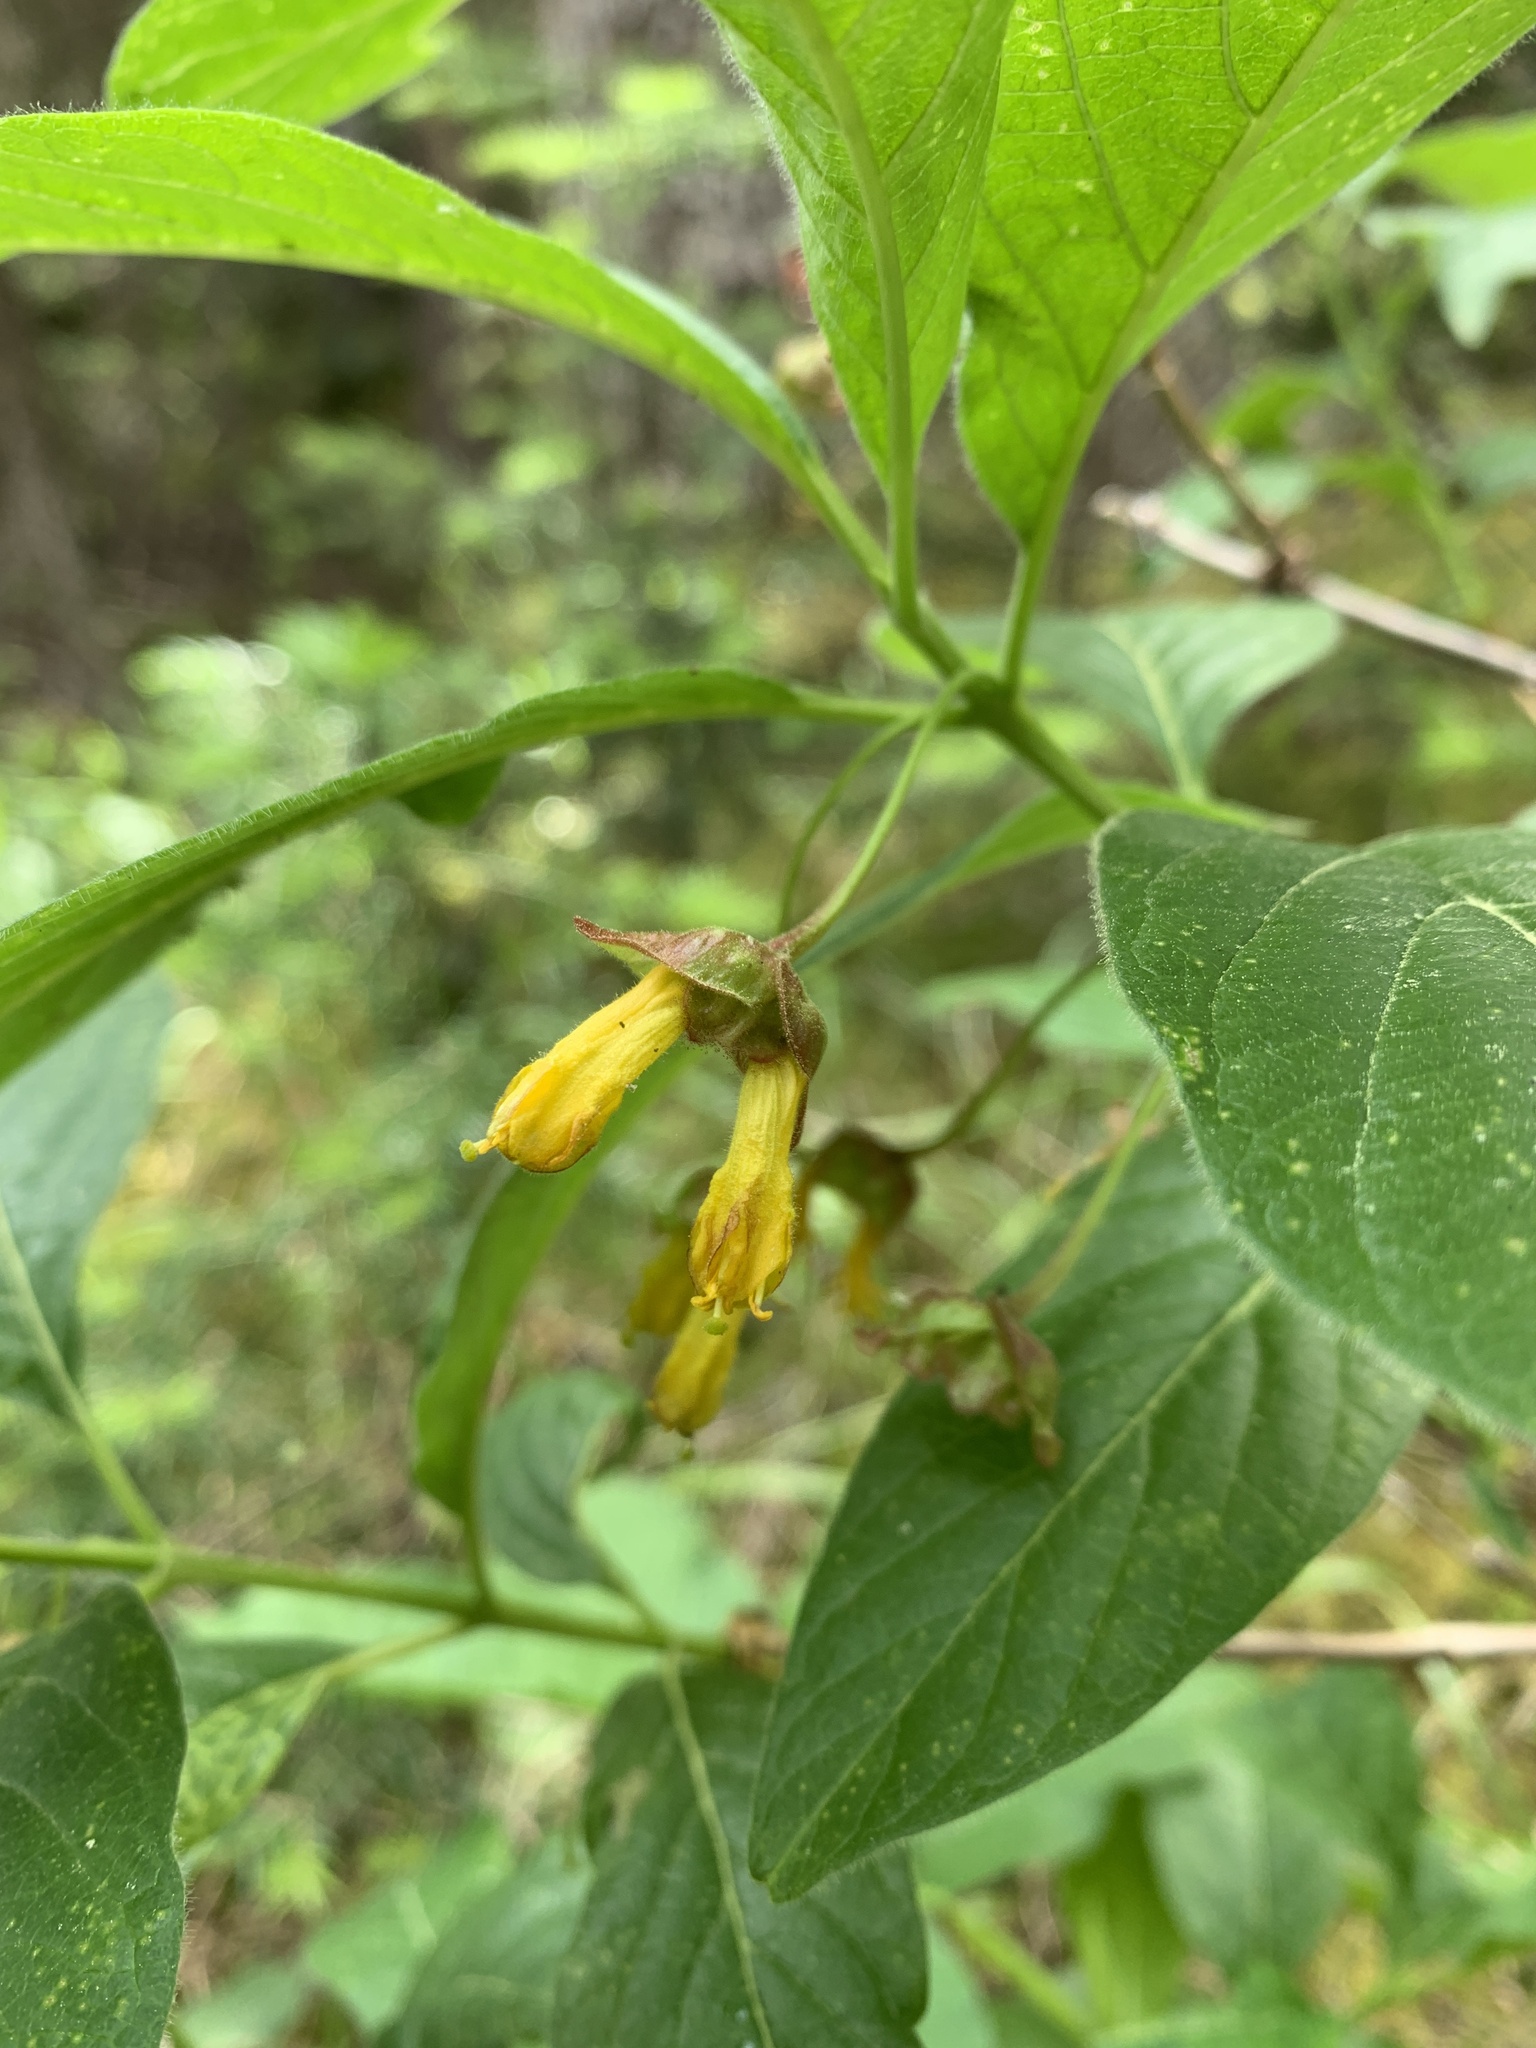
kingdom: Plantae
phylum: Tracheophyta
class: Magnoliopsida
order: Dipsacales
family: Caprifoliaceae
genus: Lonicera
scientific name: Lonicera involucrata
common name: Californian honeysuckle
